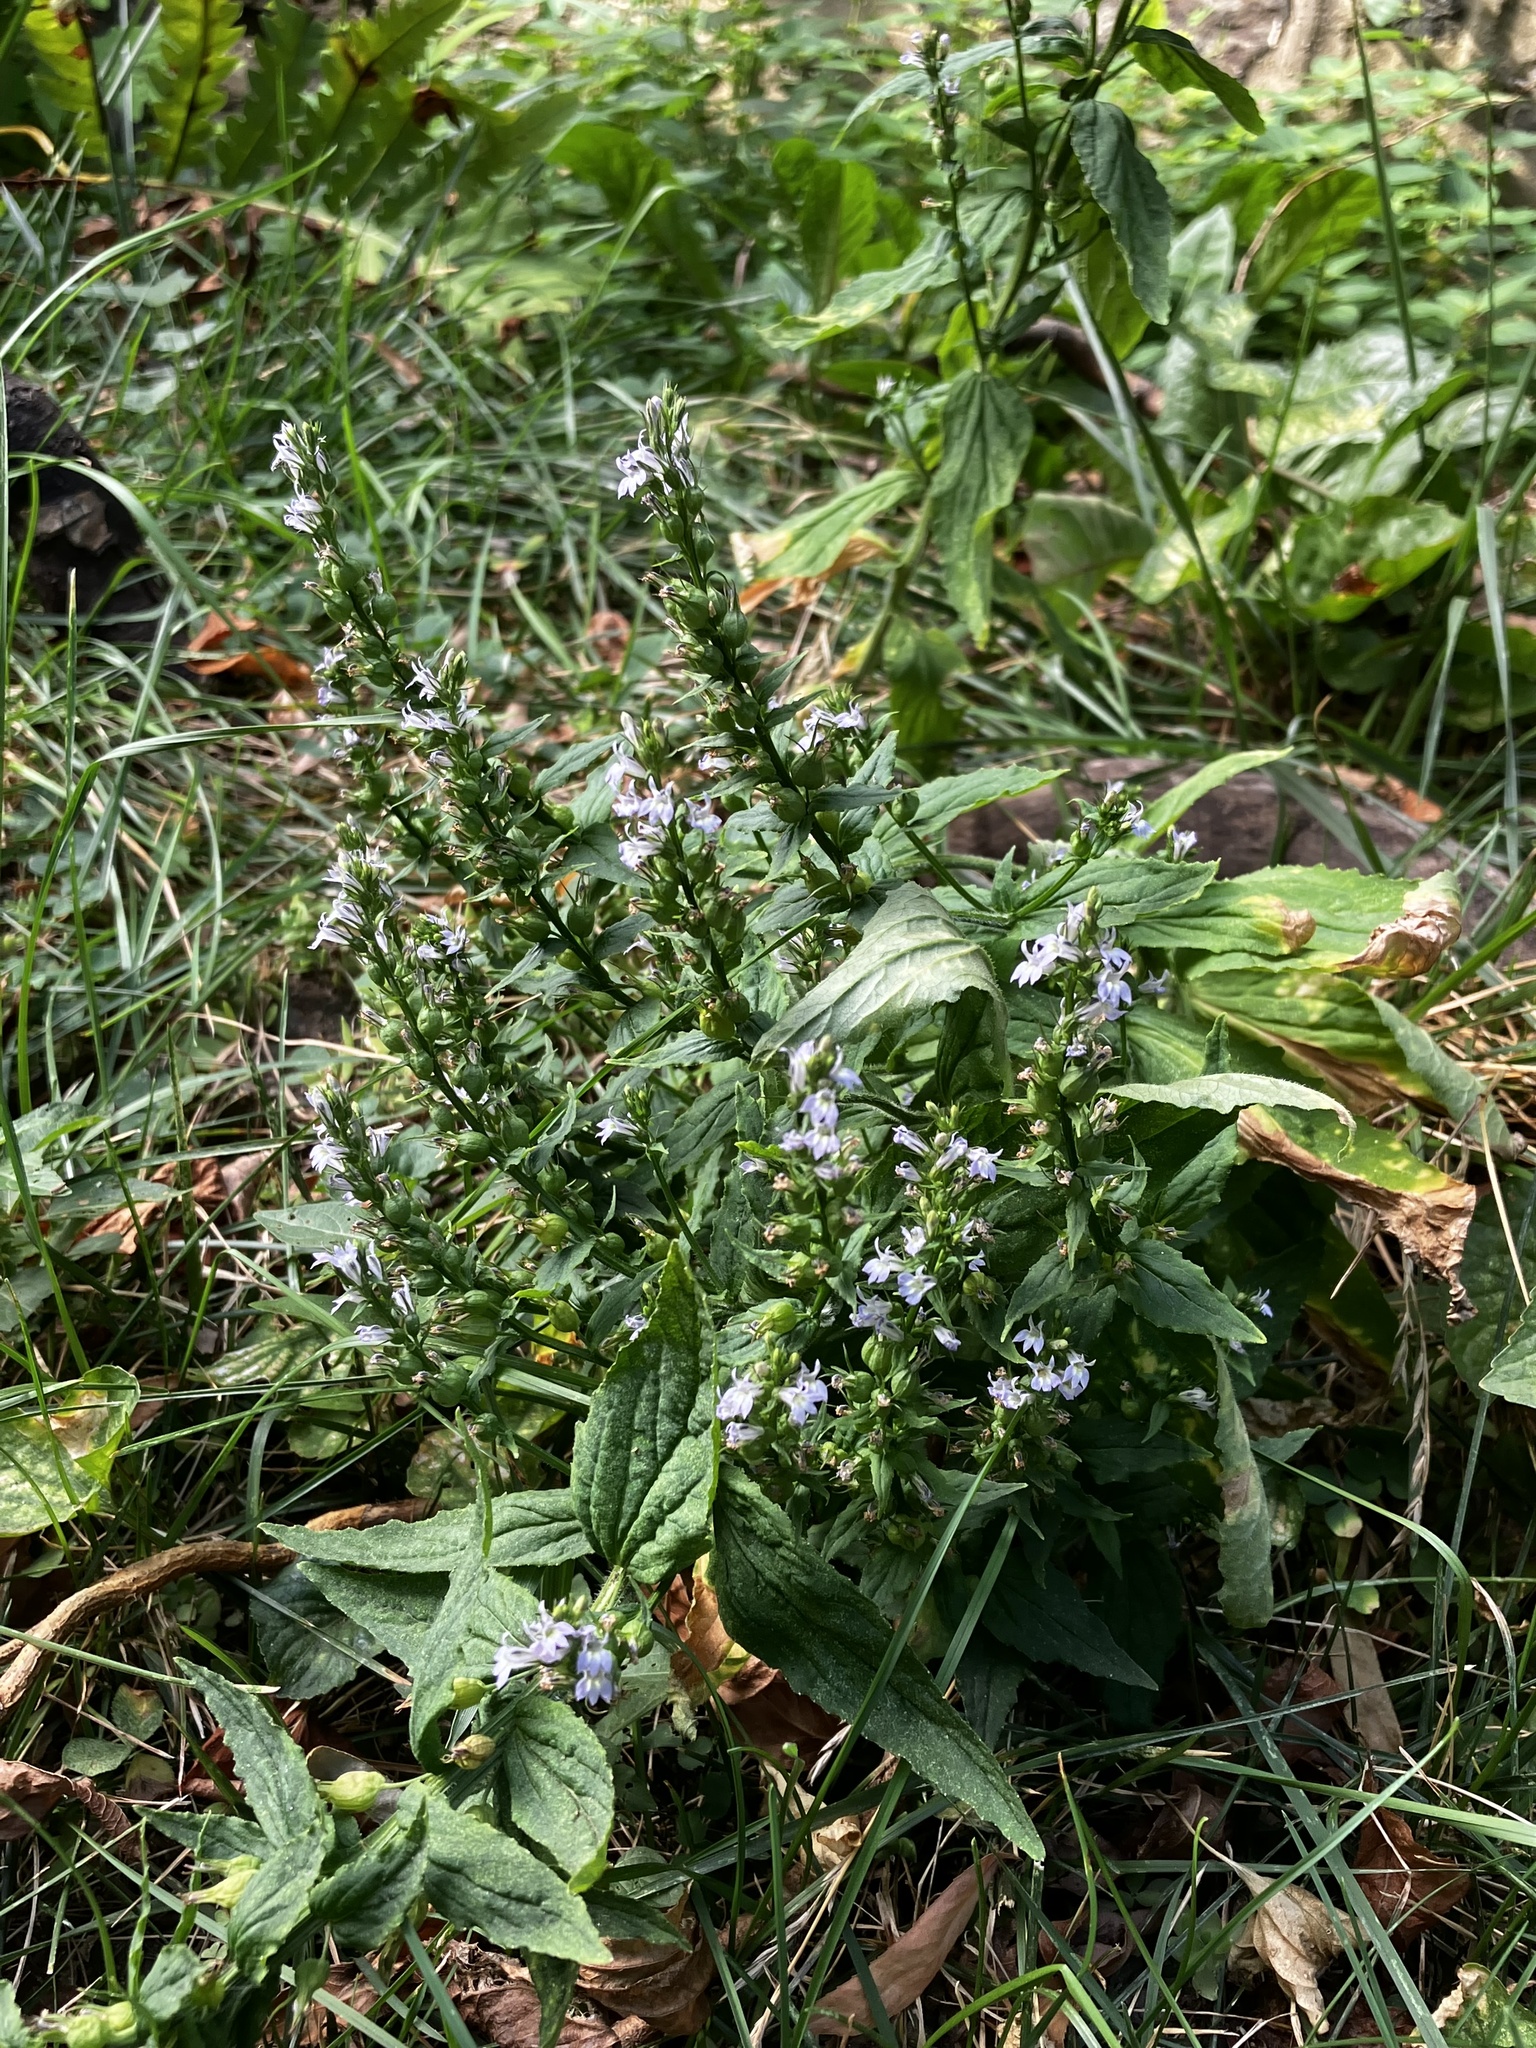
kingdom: Plantae
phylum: Tracheophyta
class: Magnoliopsida
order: Asterales
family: Campanulaceae
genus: Lobelia
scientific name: Lobelia inflata
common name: Indian tobacco
